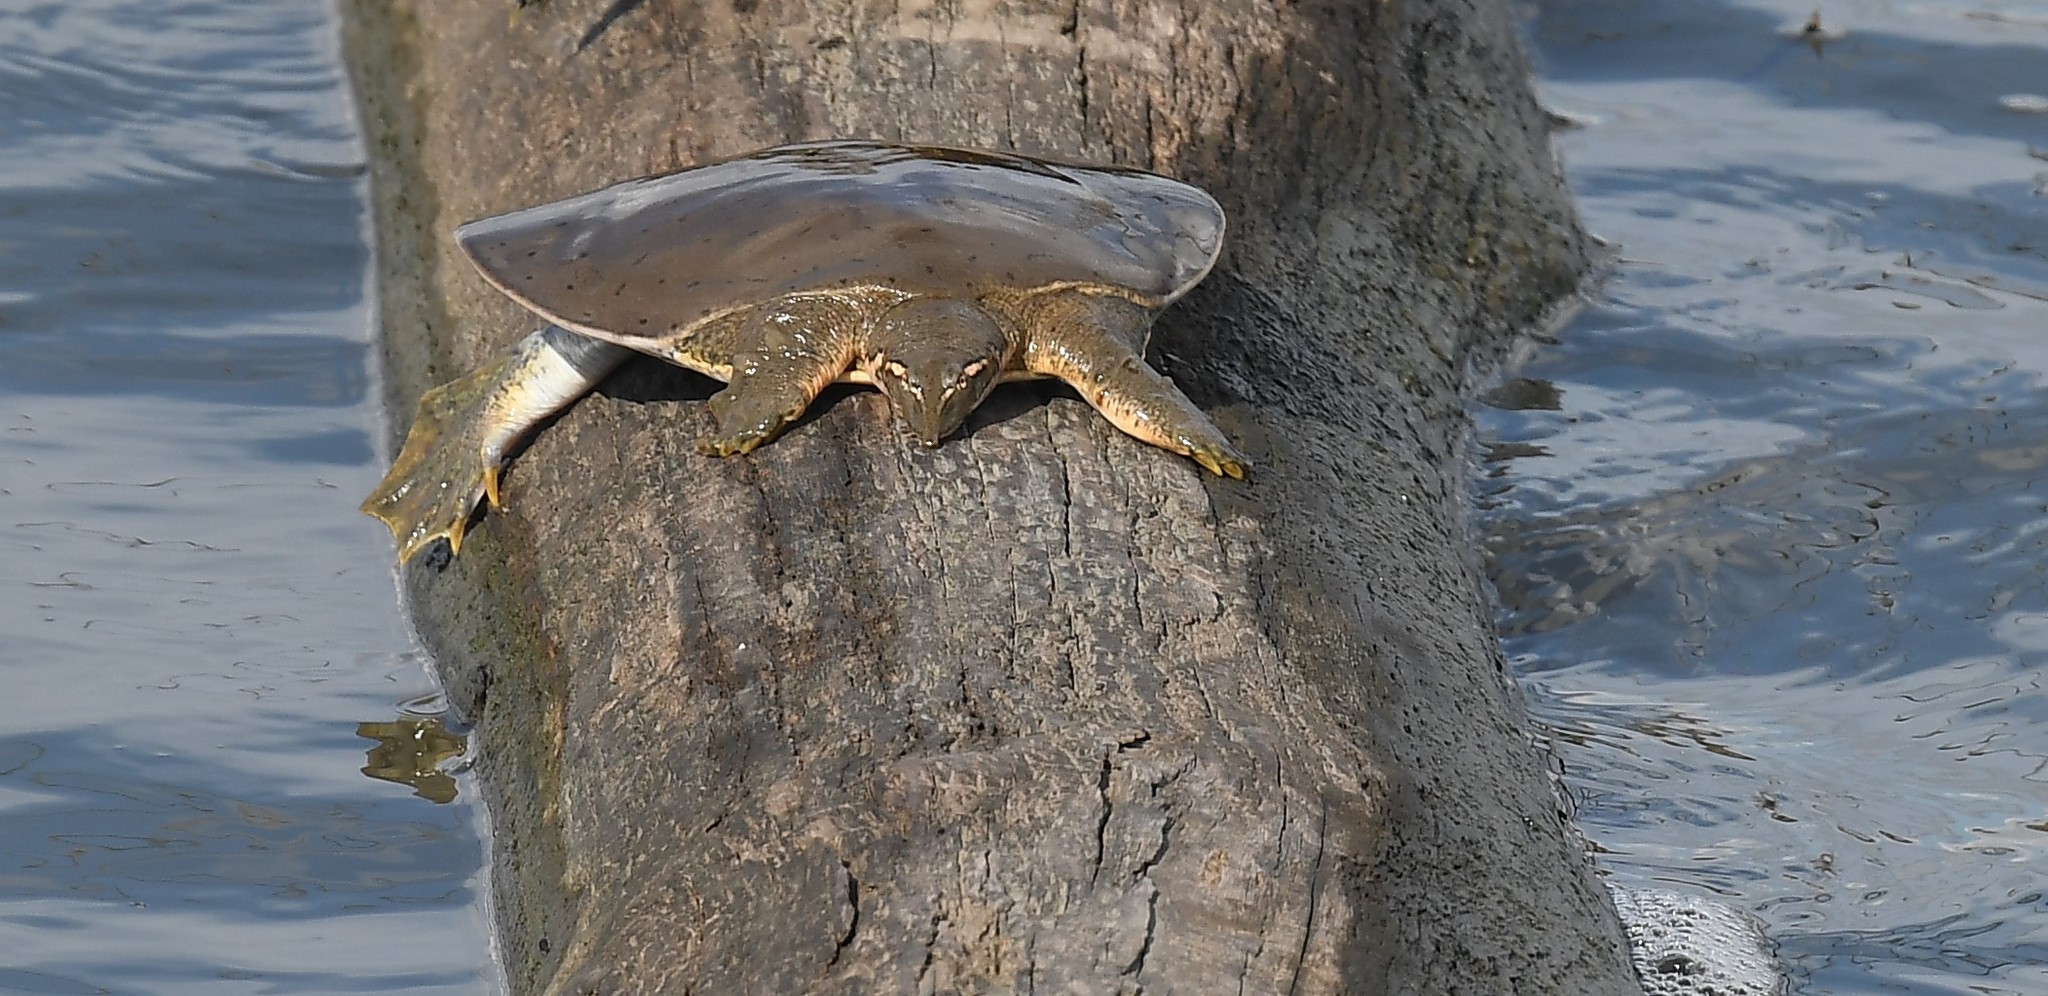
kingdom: Animalia
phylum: Chordata
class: Testudines
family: Trionychidae
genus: Apalone
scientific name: Apalone mutica
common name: Smooth softshell turtle
